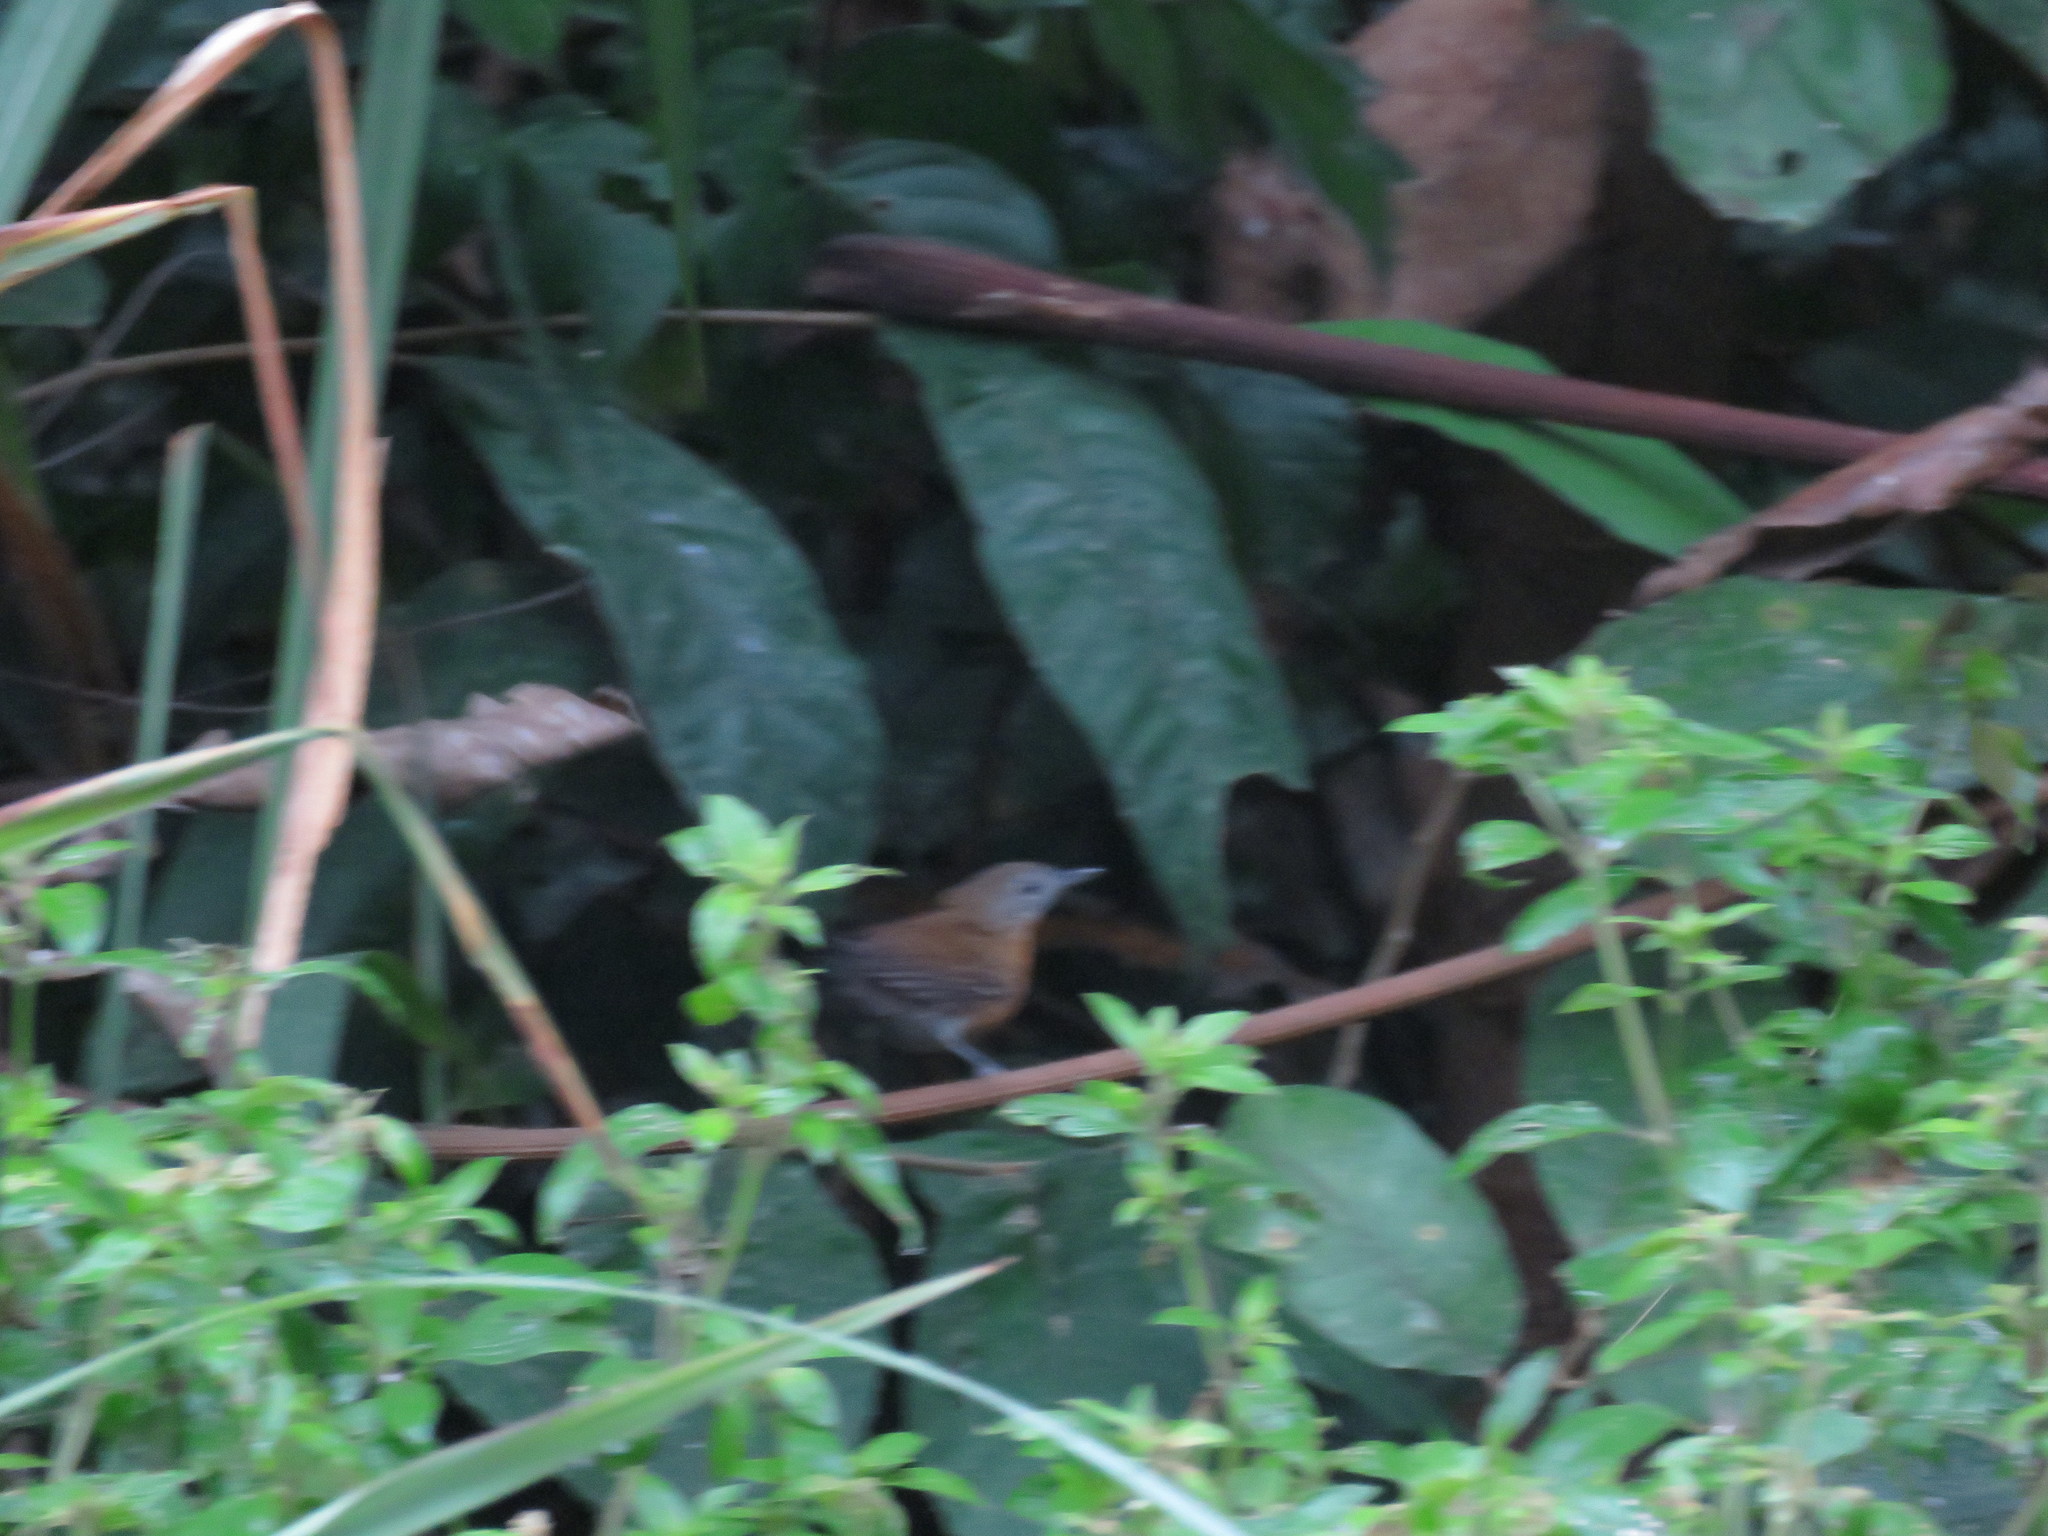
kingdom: Animalia
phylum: Chordata
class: Aves
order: Passeriformes
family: Thamnophilidae
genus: Myrmeciza
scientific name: Myrmeciza atrothorax
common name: Black-throated antbird
